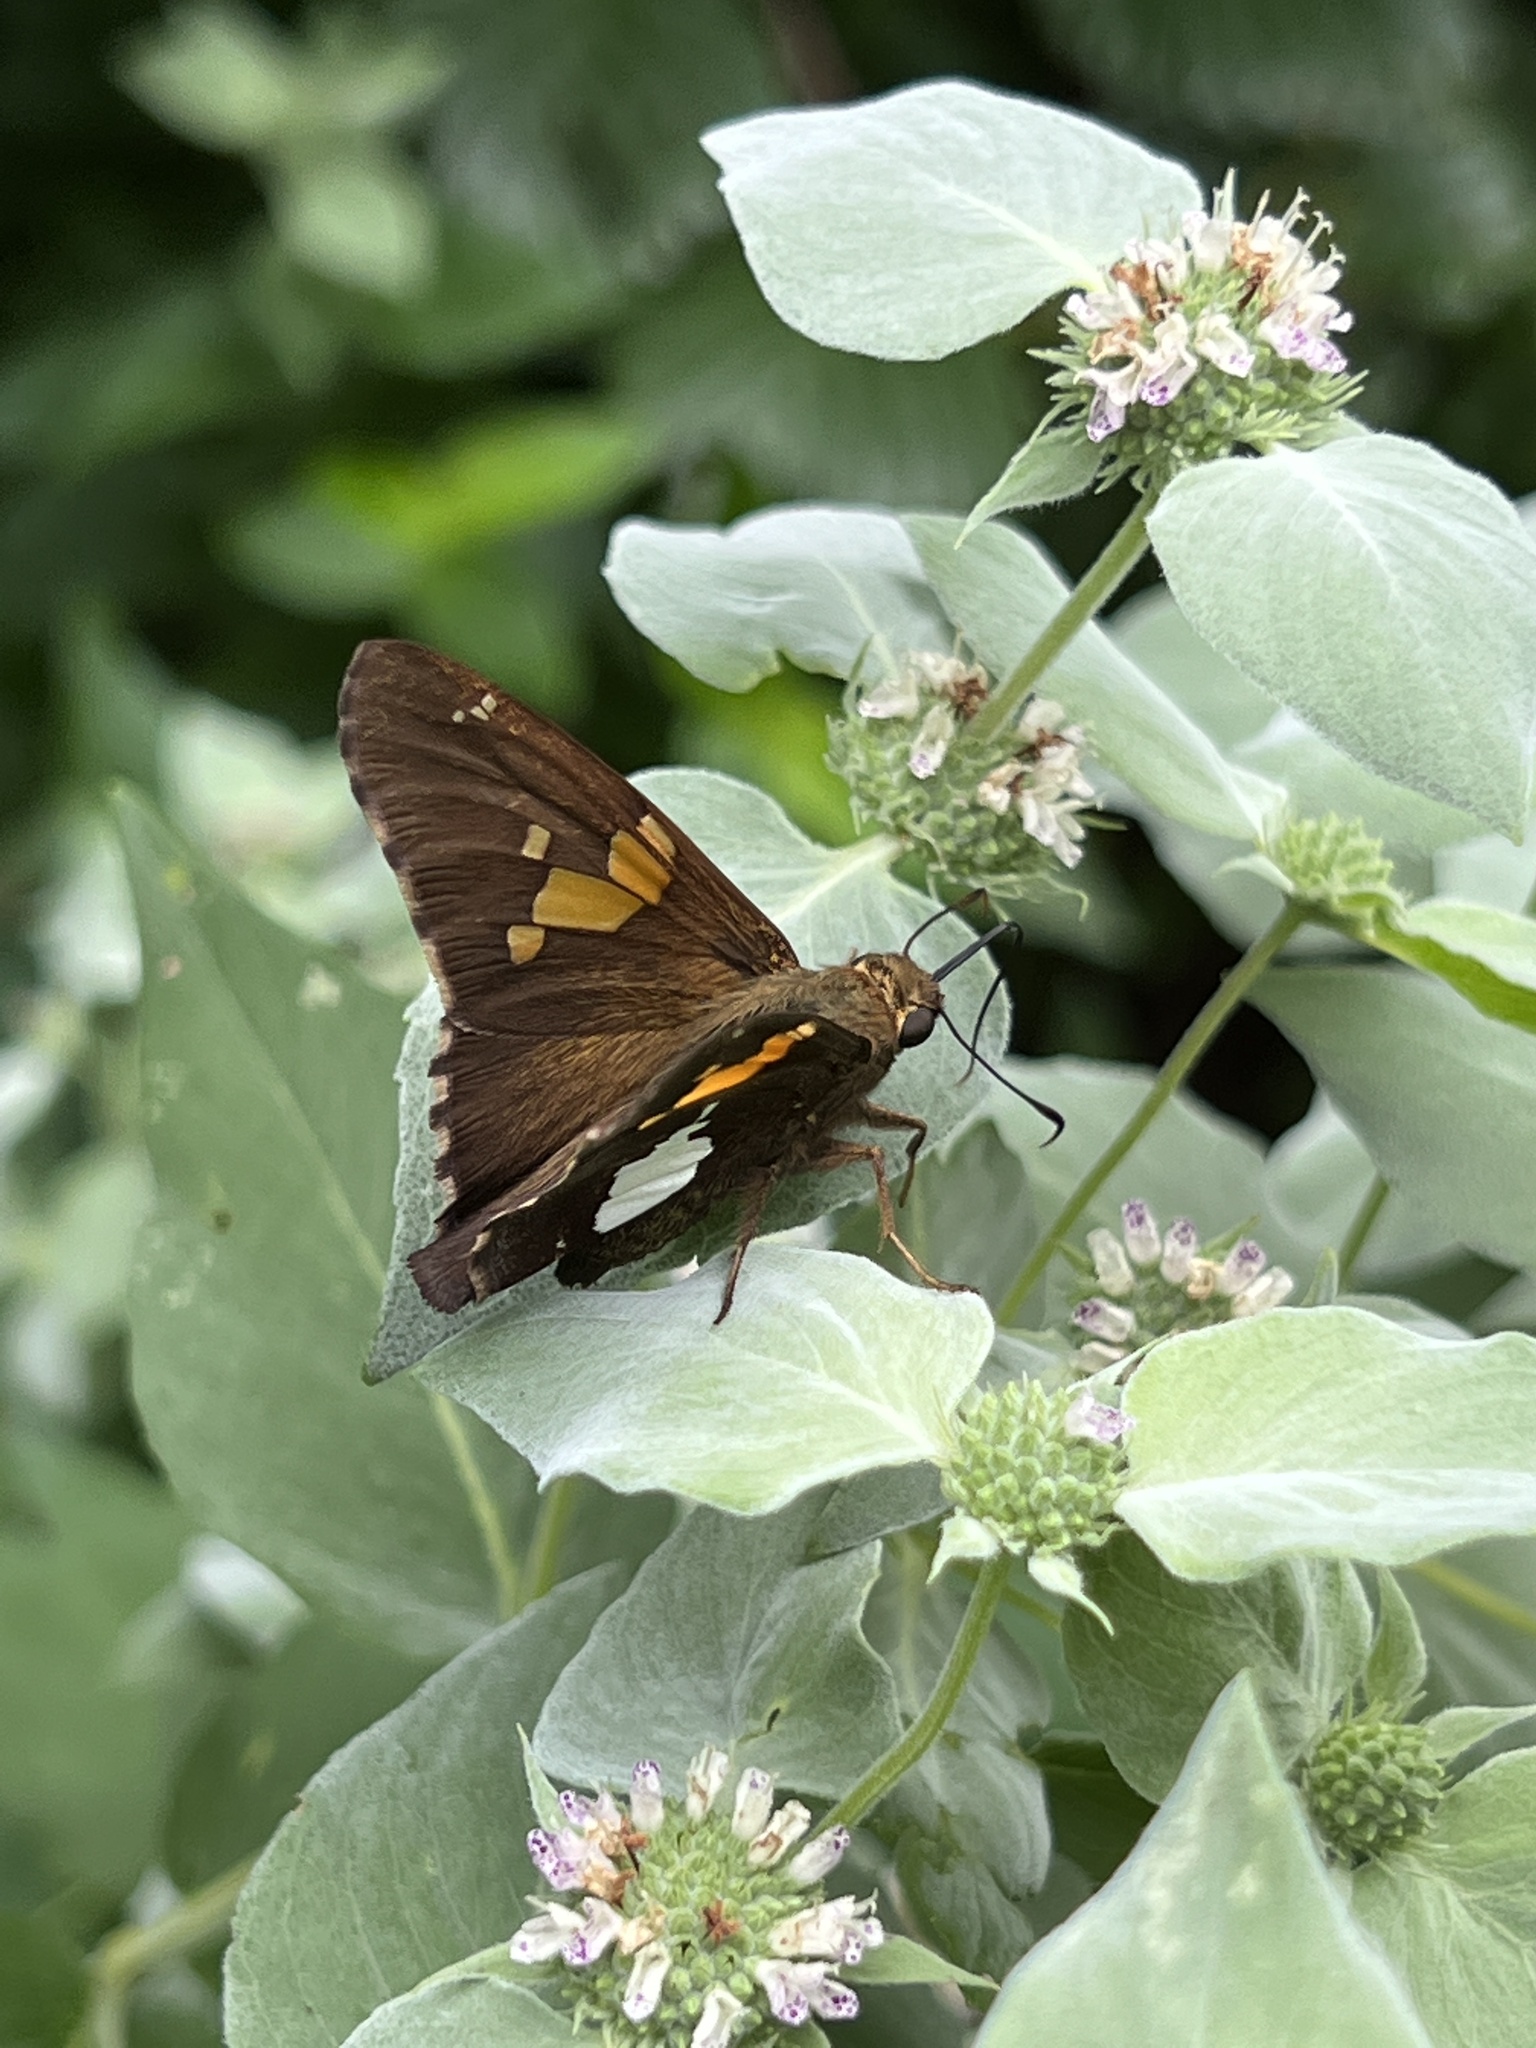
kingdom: Animalia
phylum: Arthropoda
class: Insecta
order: Lepidoptera
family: Hesperiidae
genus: Epargyreus
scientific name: Epargyreus clarus
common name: Silver-spotted skipper
